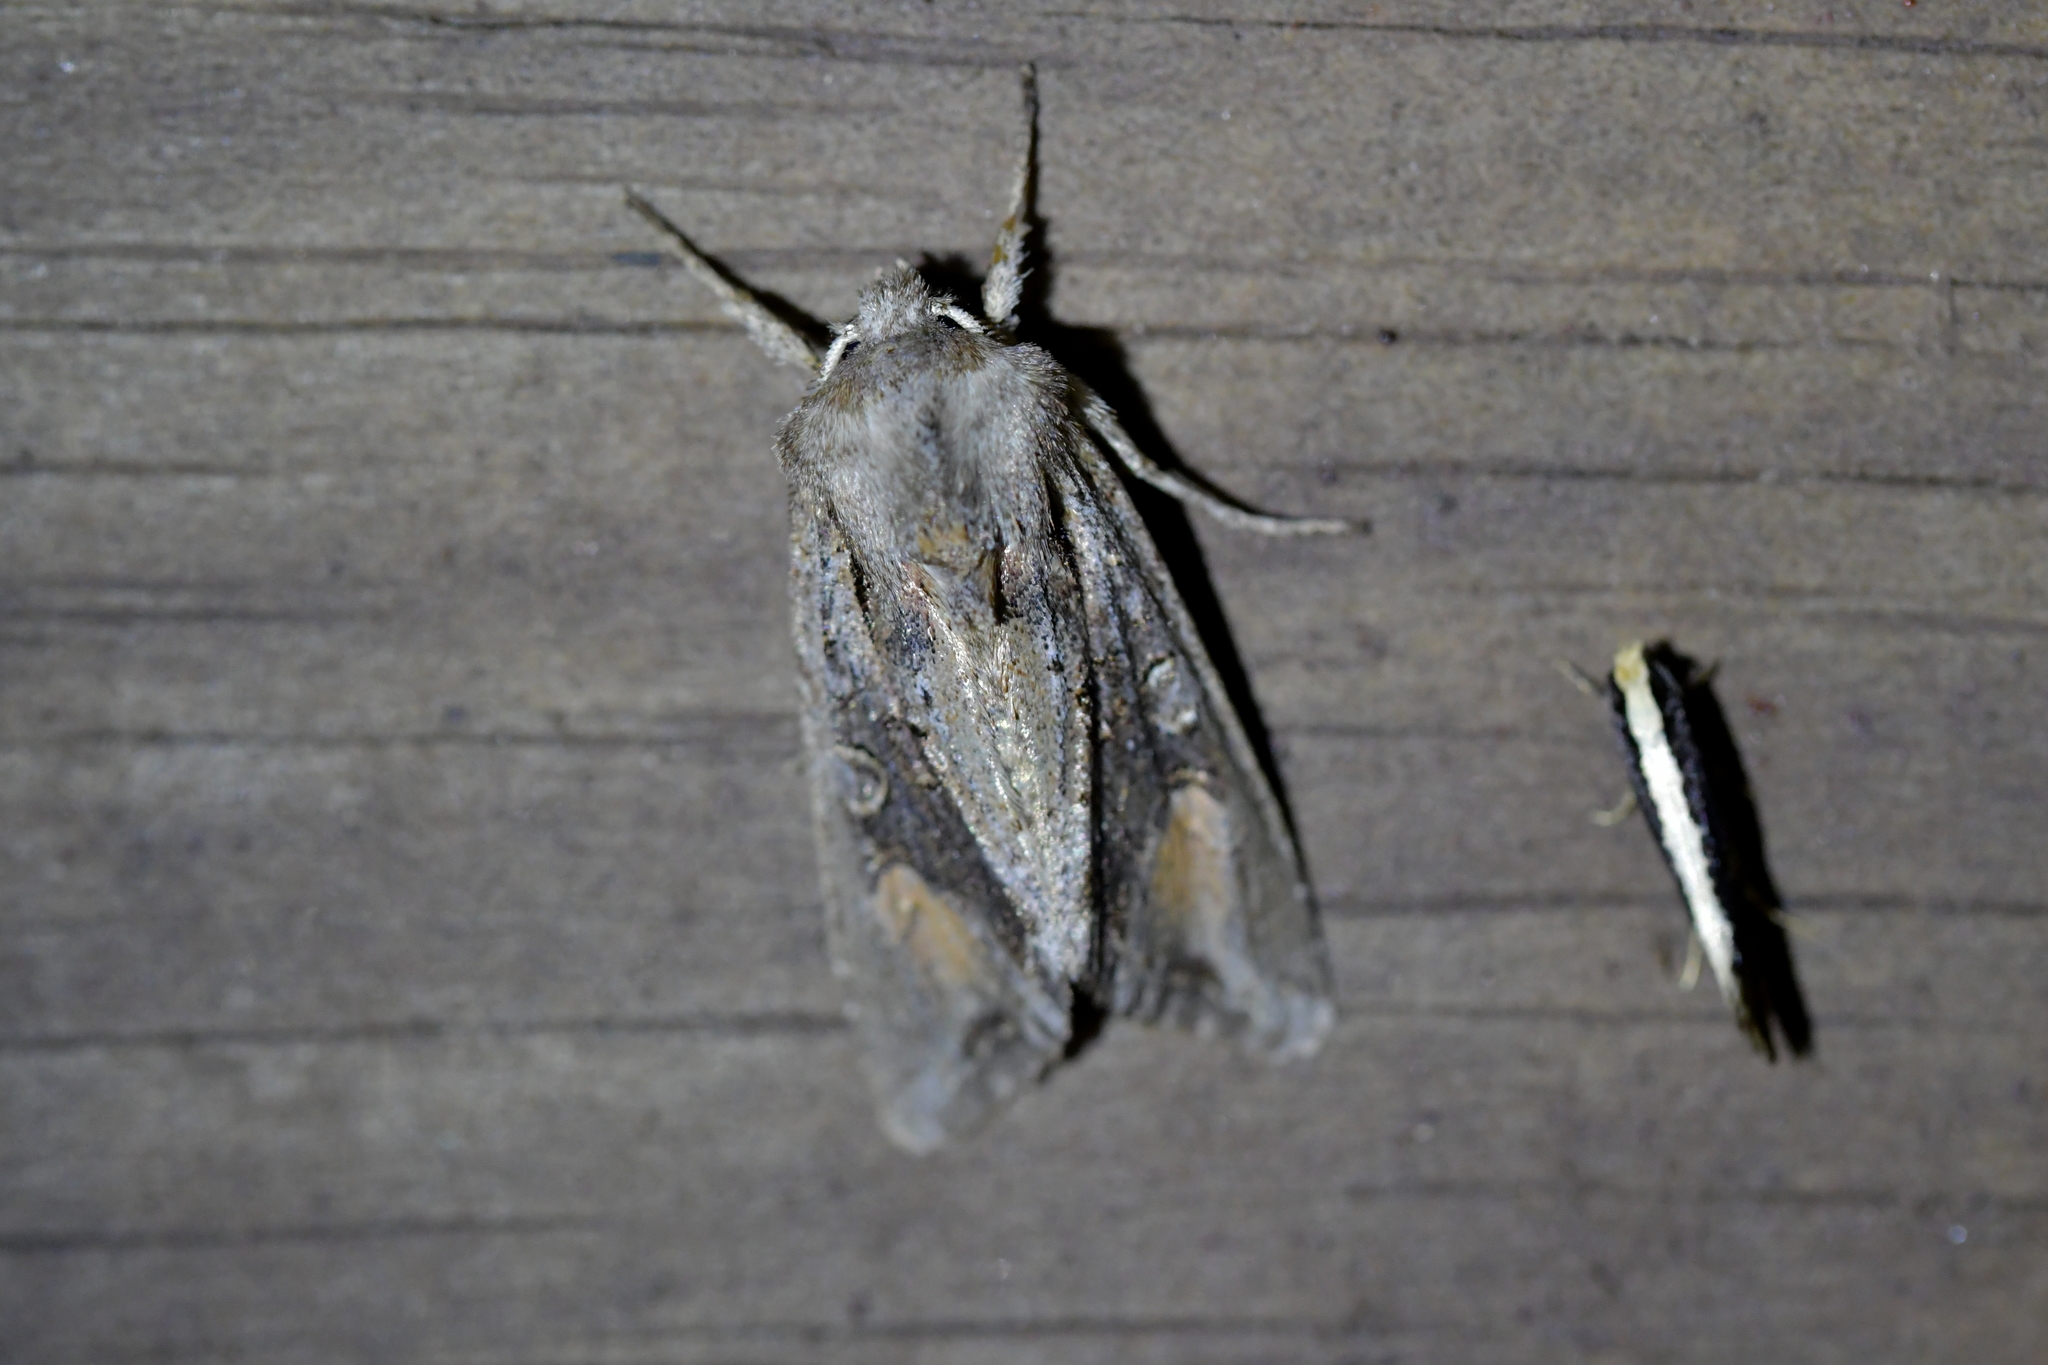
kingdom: Animalia
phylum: Arthropoda
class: Insecta
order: Lepidoptera
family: Noctuidae
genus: Ichneutica
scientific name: Ichneutica
